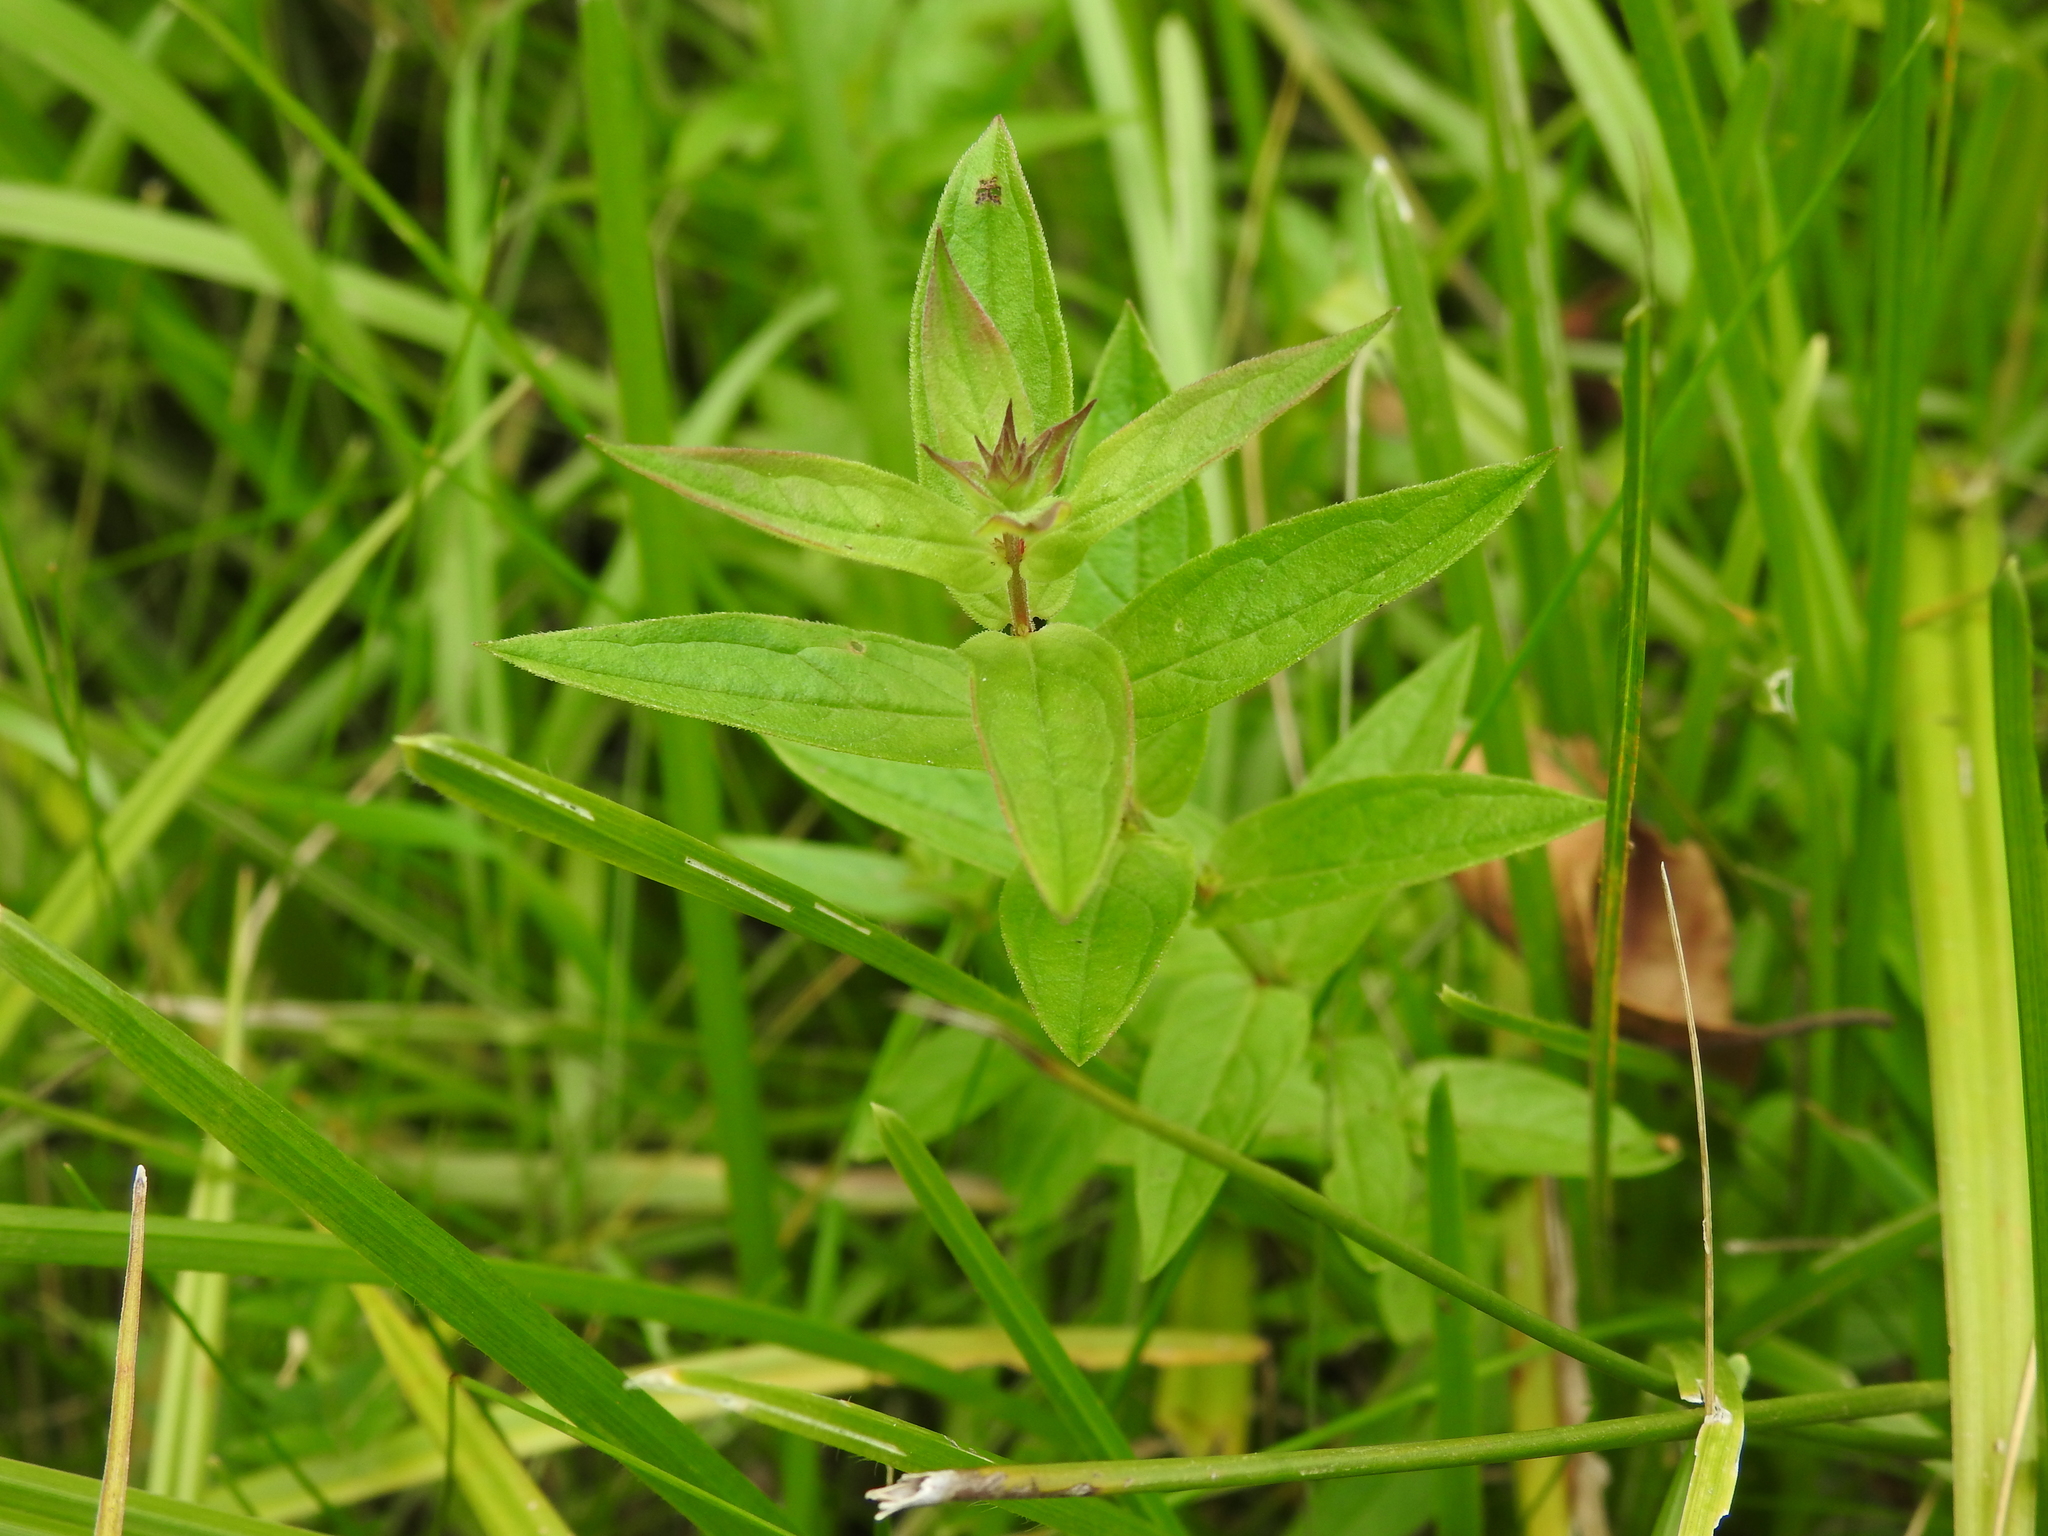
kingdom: Plantae
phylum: Tracheophyta
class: Magnoliopsida
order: Myrtales
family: Lythraceae
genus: Lythrum
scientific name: Lythrum salicaria
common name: Purple loosestrife
